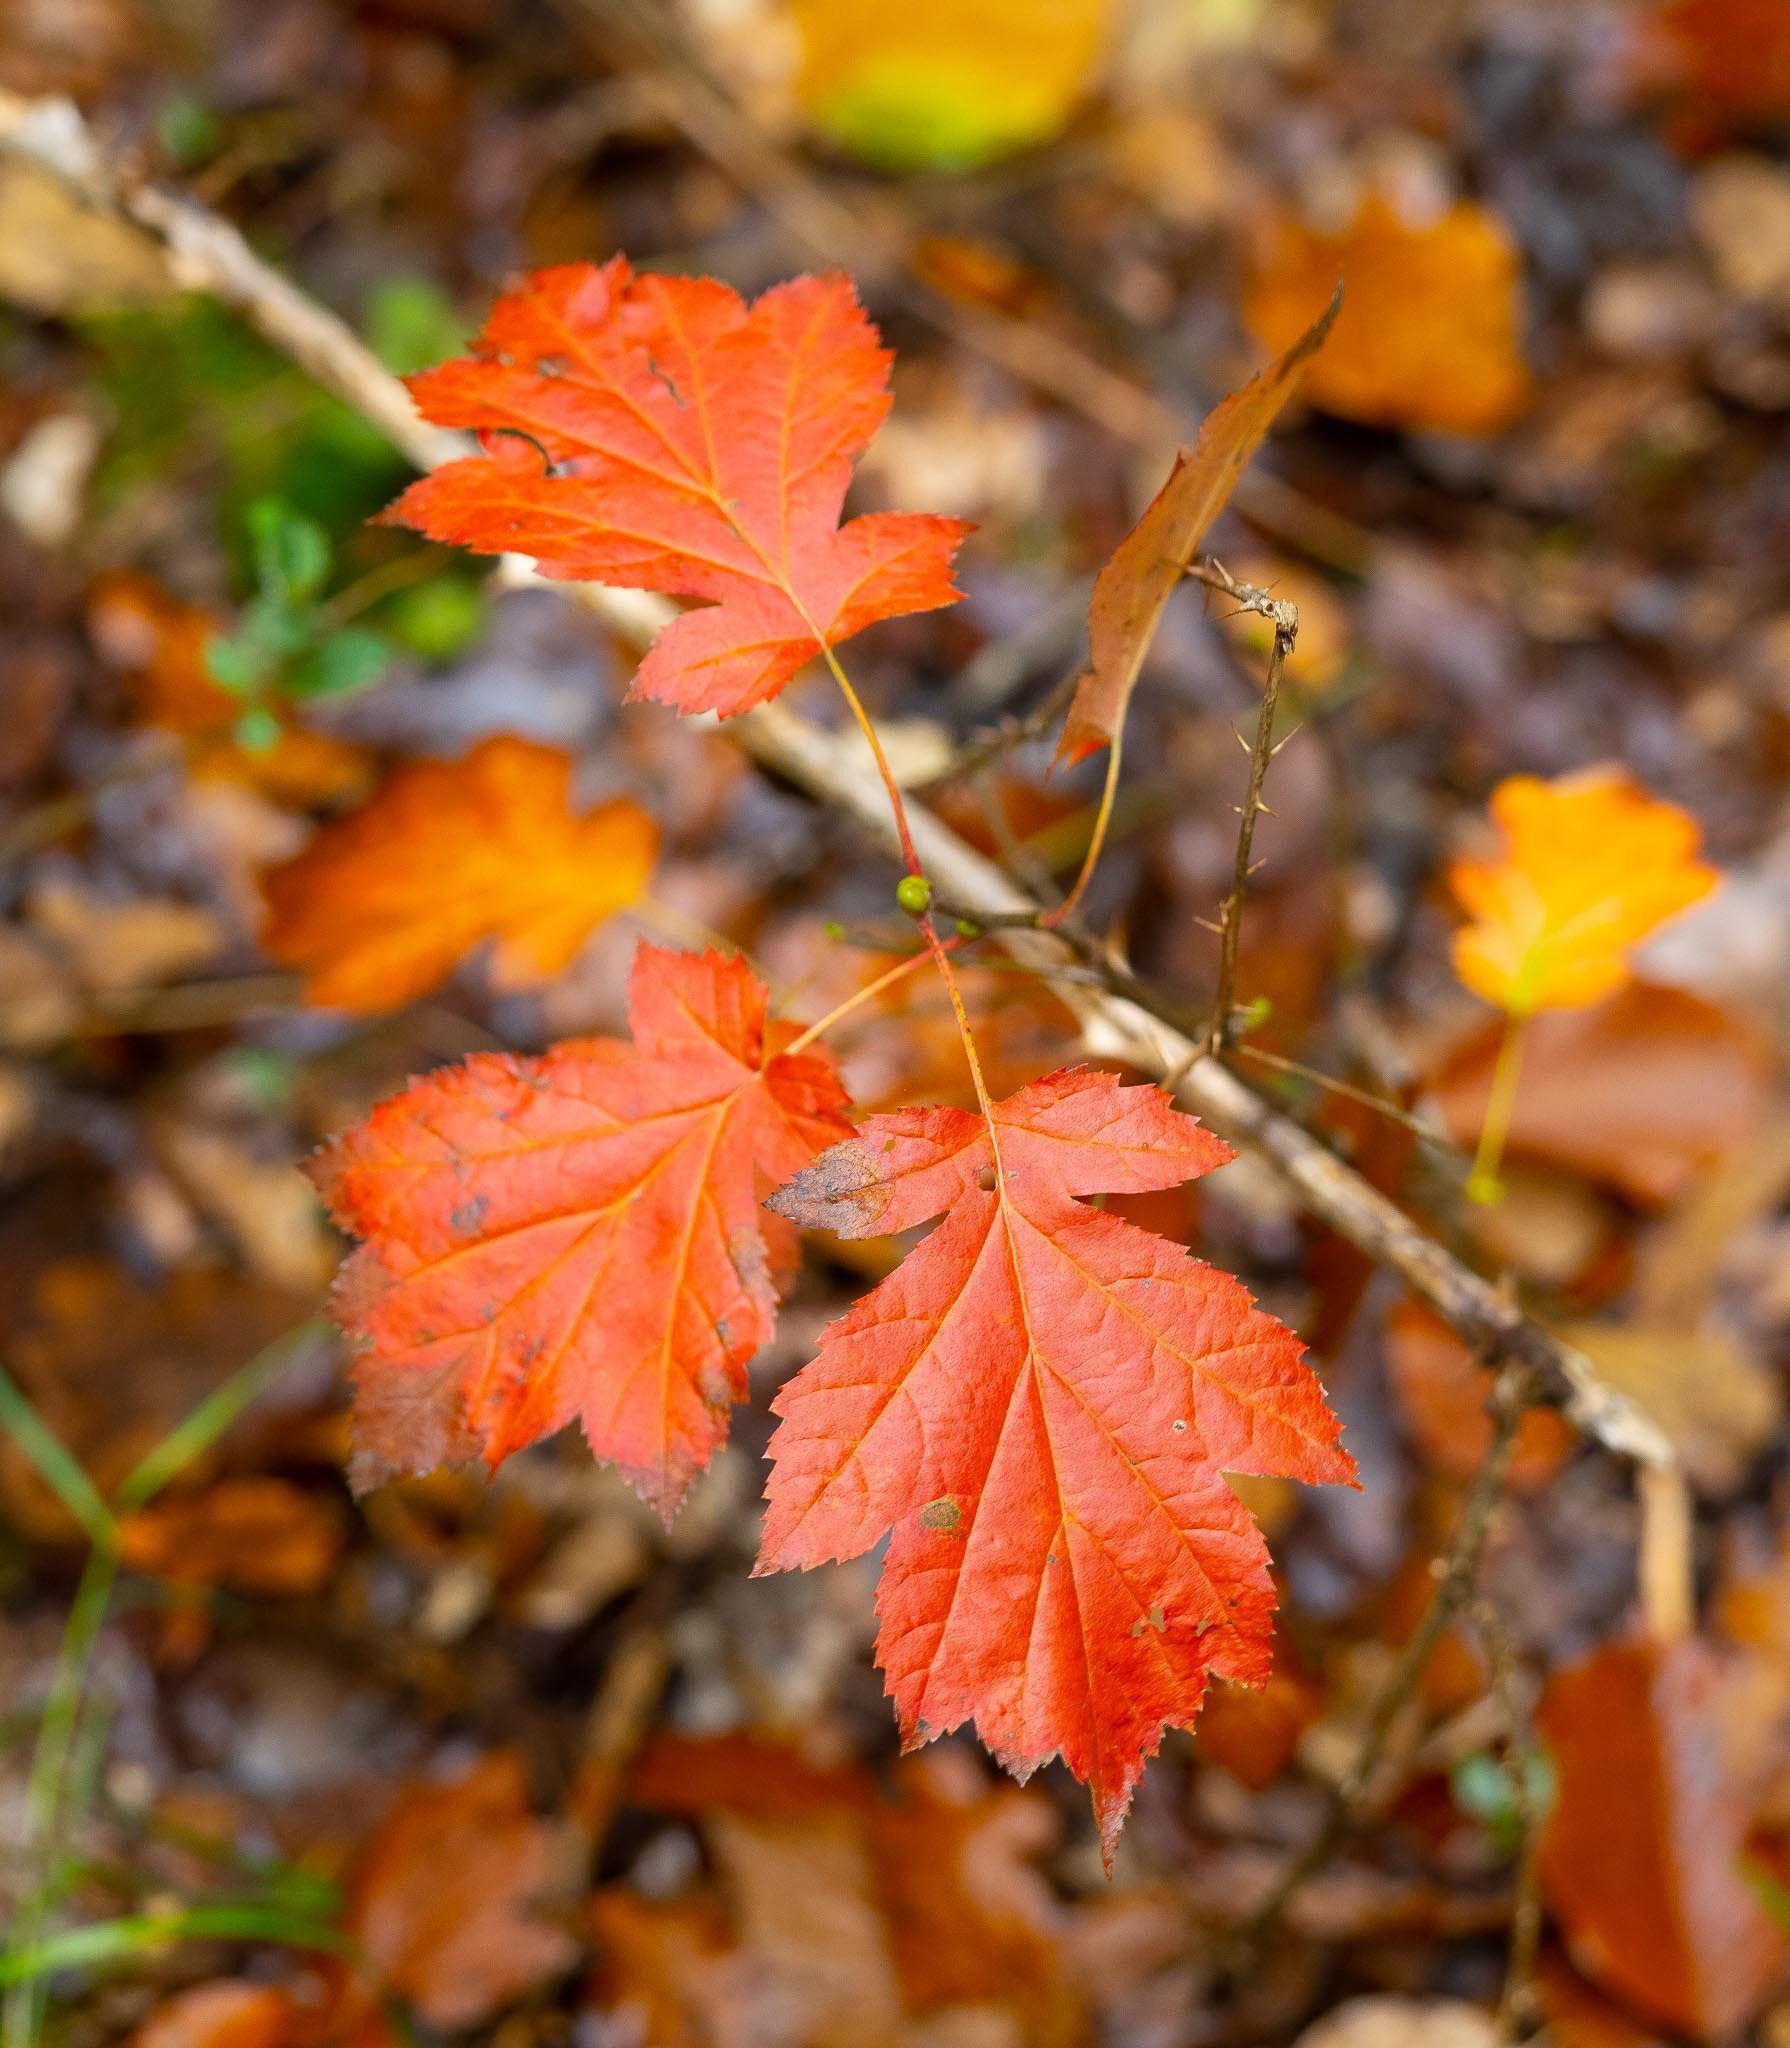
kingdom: Plantae
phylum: Tracheophyta
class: Magnoliopsida
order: Rosales
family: Rosaceae
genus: Torminalis
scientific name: Torminalis glaberrima
